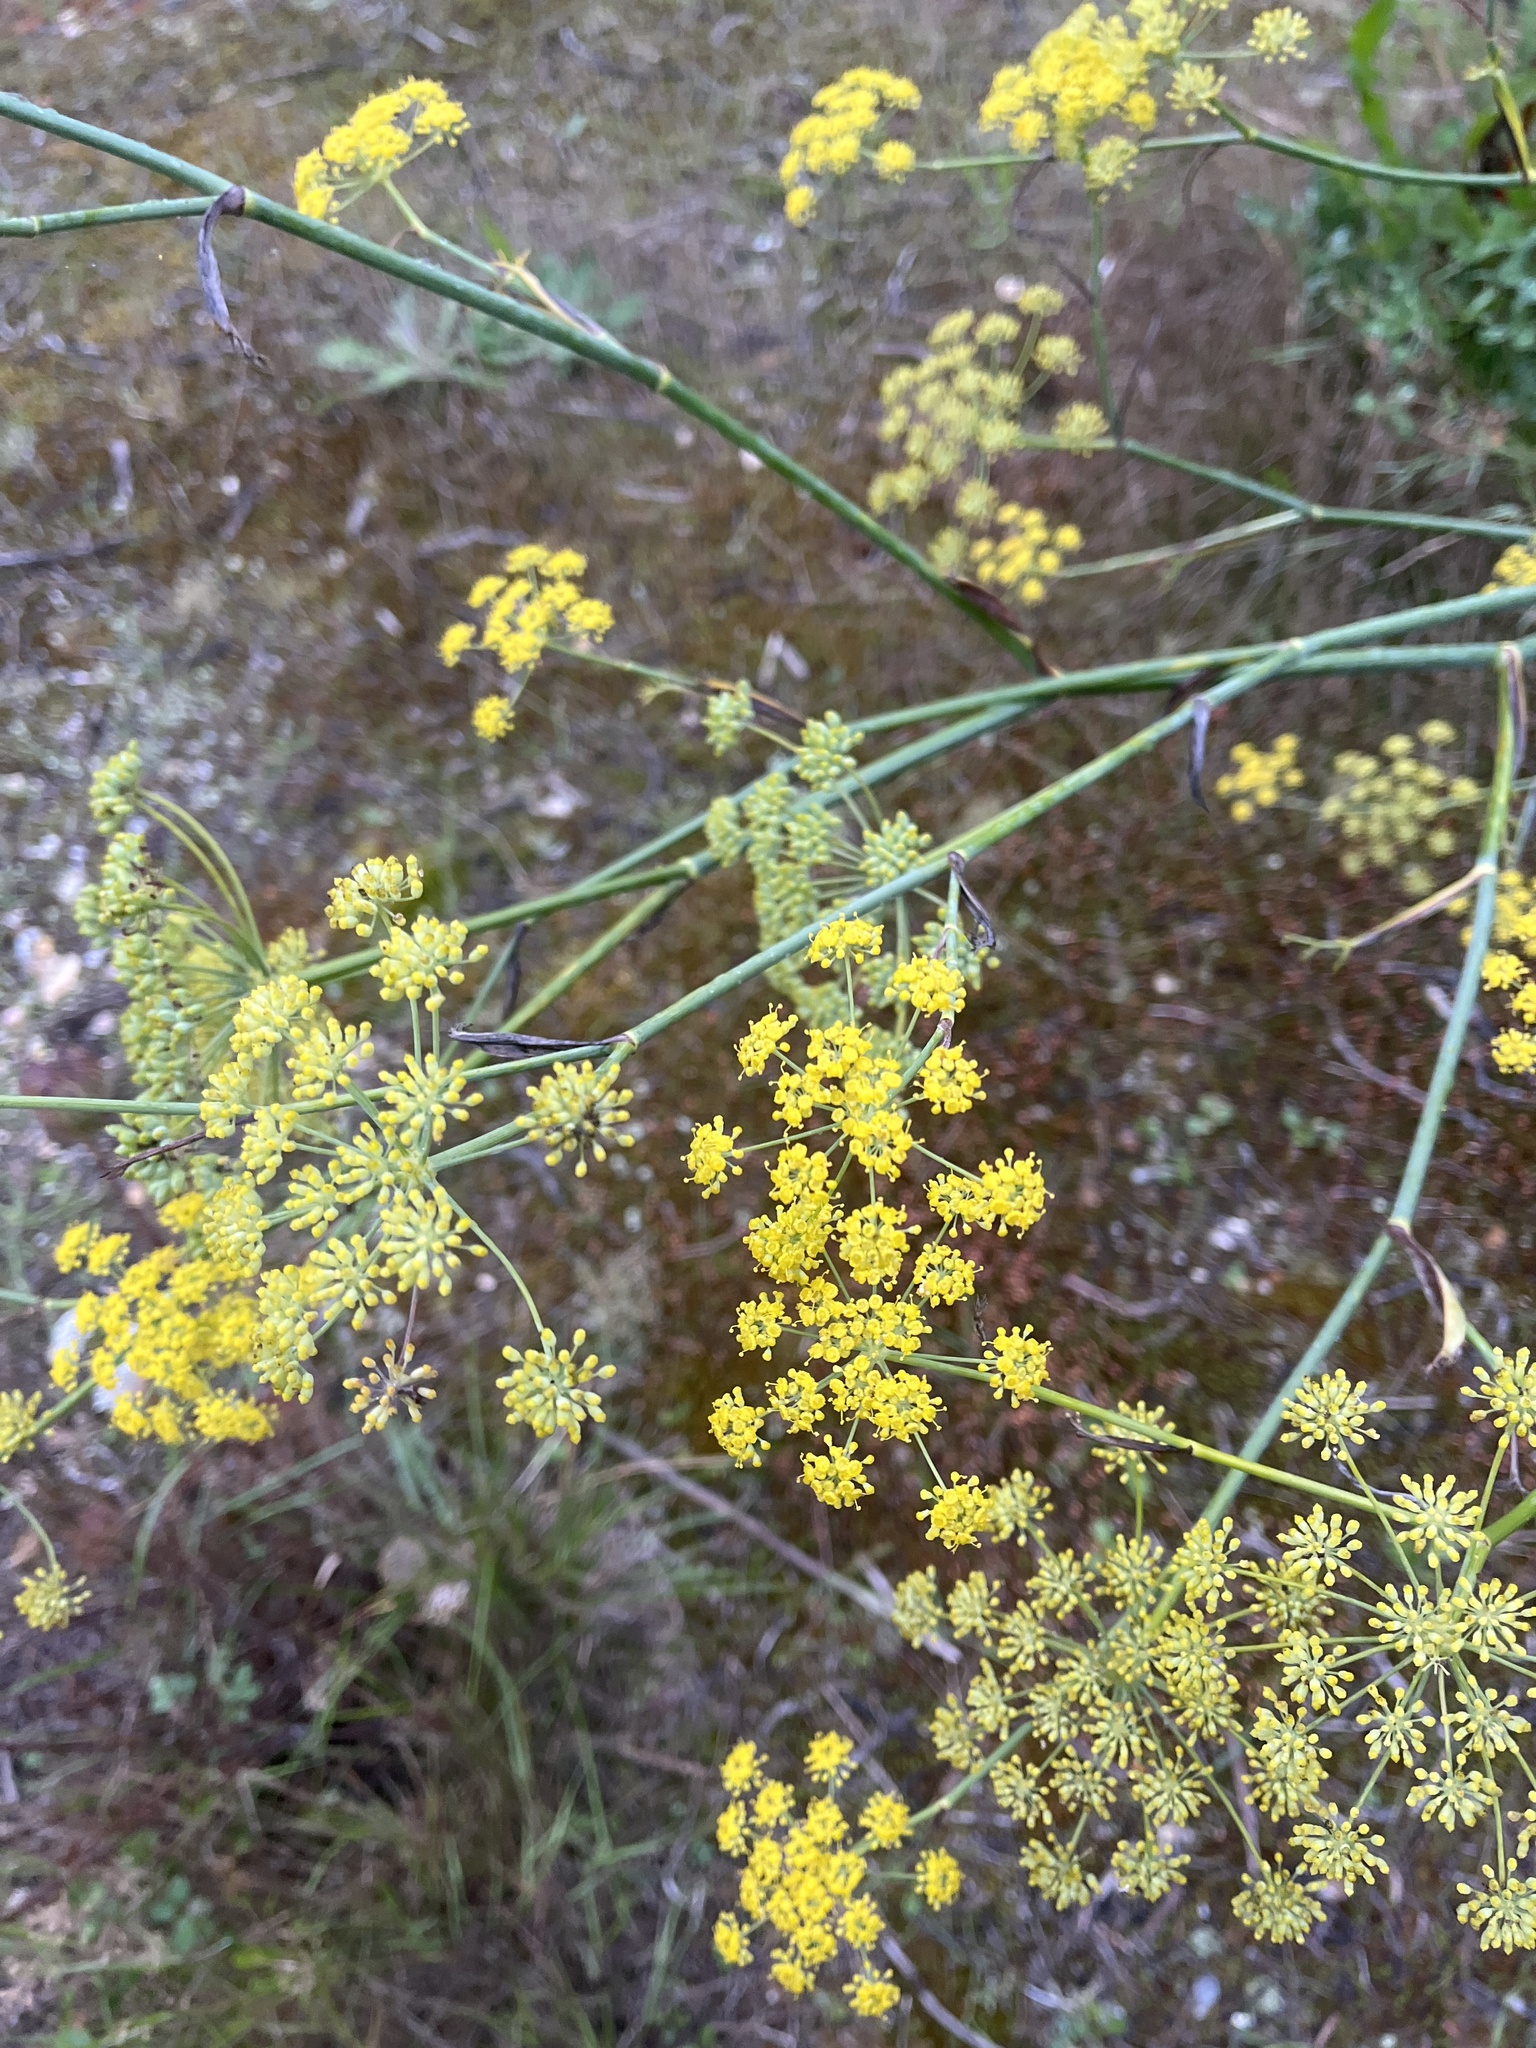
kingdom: Plantae
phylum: Tracheophyta
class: Magnoliopsida
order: Apiales
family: Apiaceae
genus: Foeniculum
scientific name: Foeniculum vulgare
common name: Fennel
